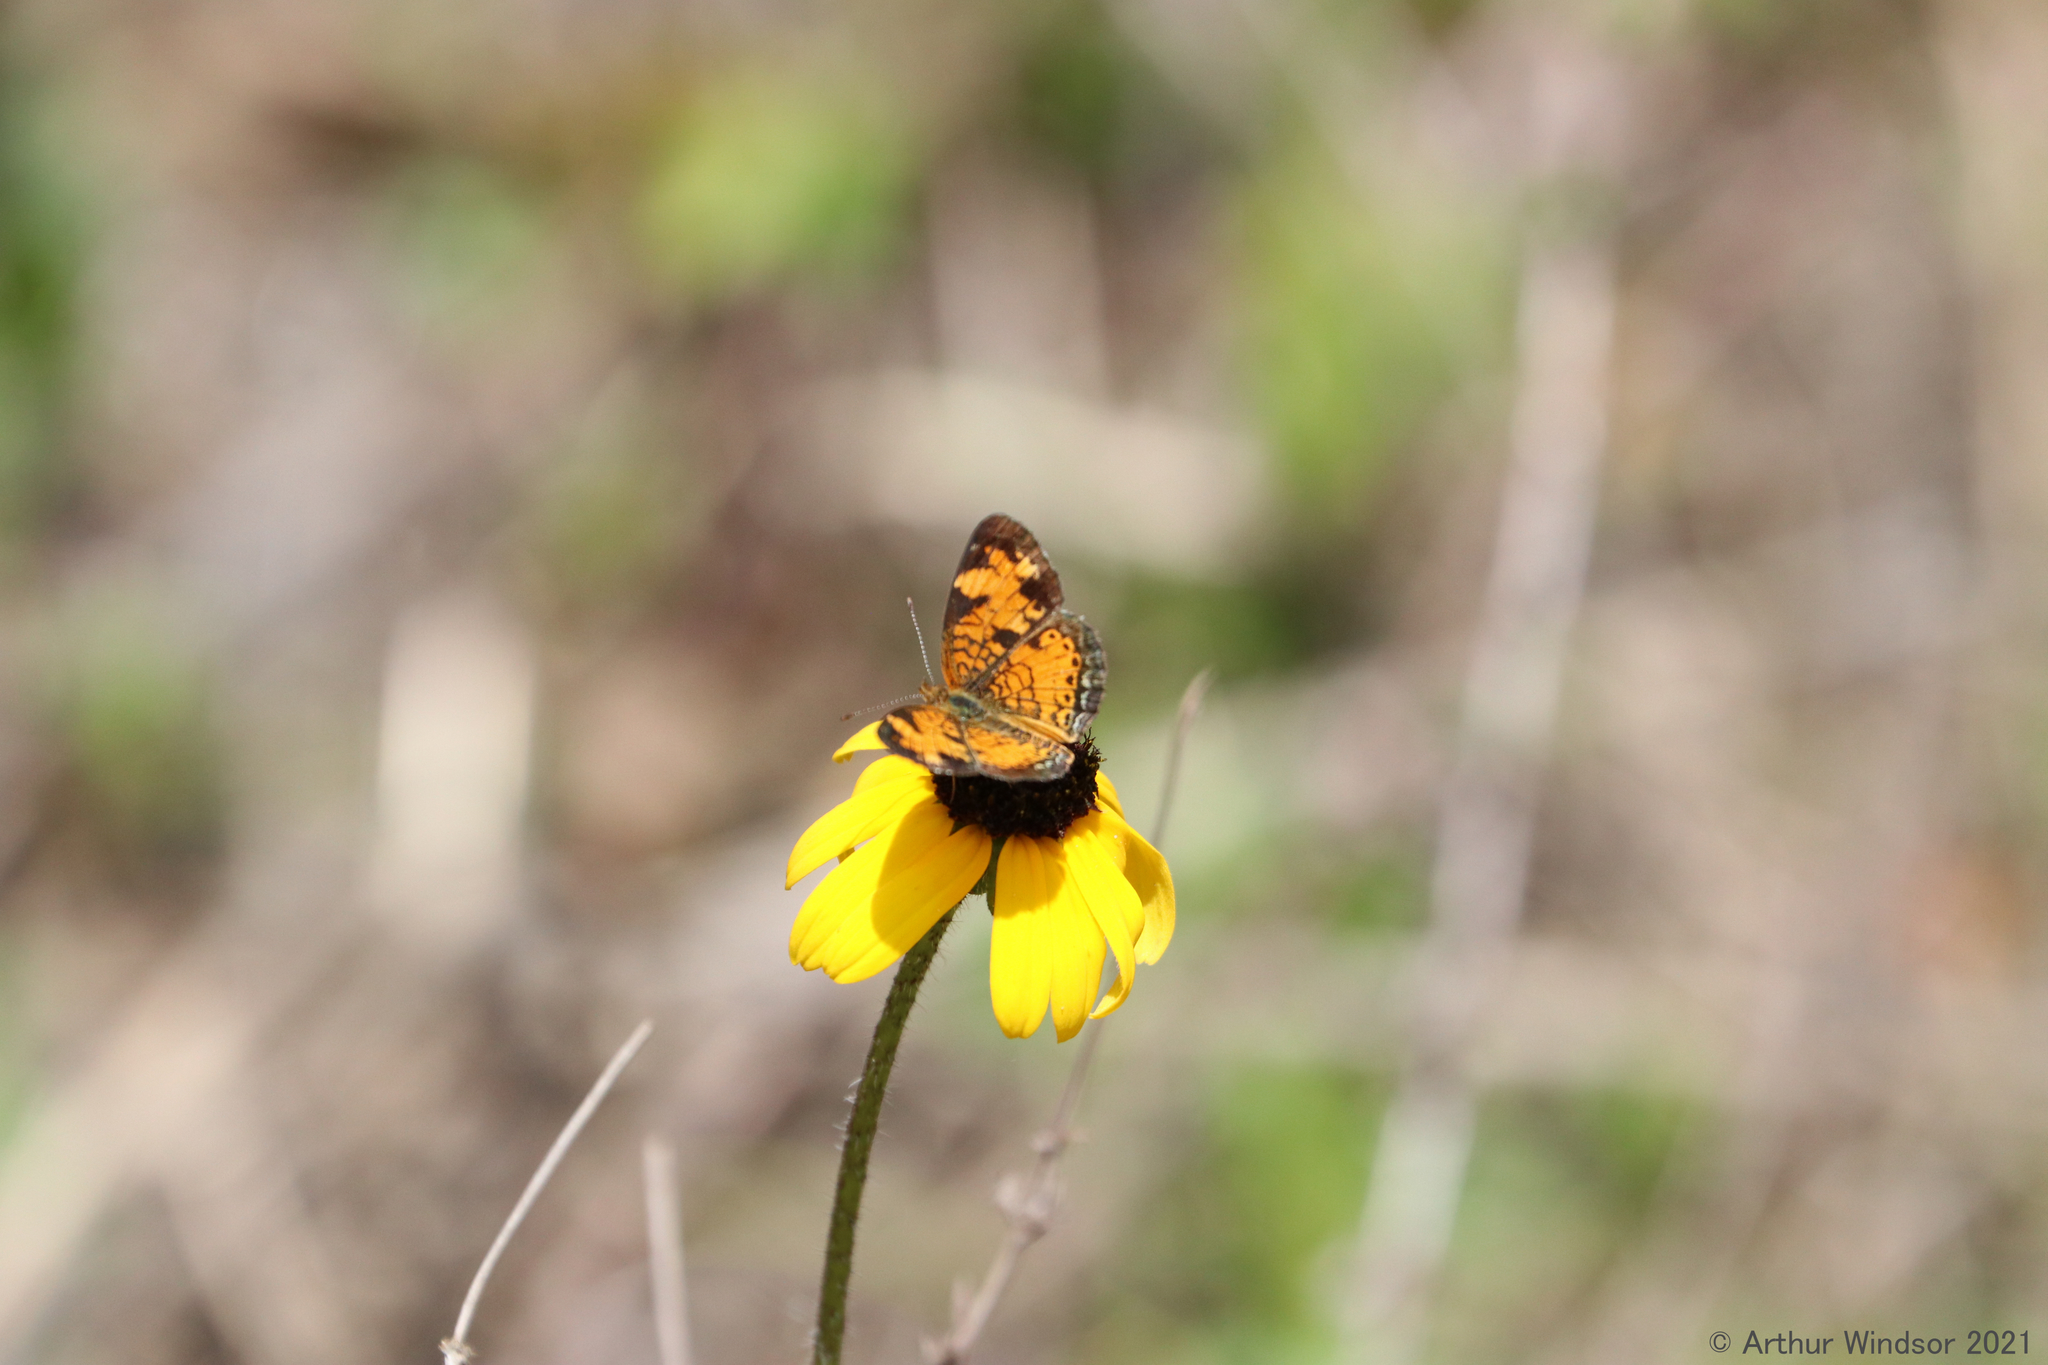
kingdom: Animalia
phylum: Arthropoda
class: Insecta
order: Lepidoptera
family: Nymphalidae
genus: Phyciodes
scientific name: Phyciodes tharos
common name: Pearl crescent
